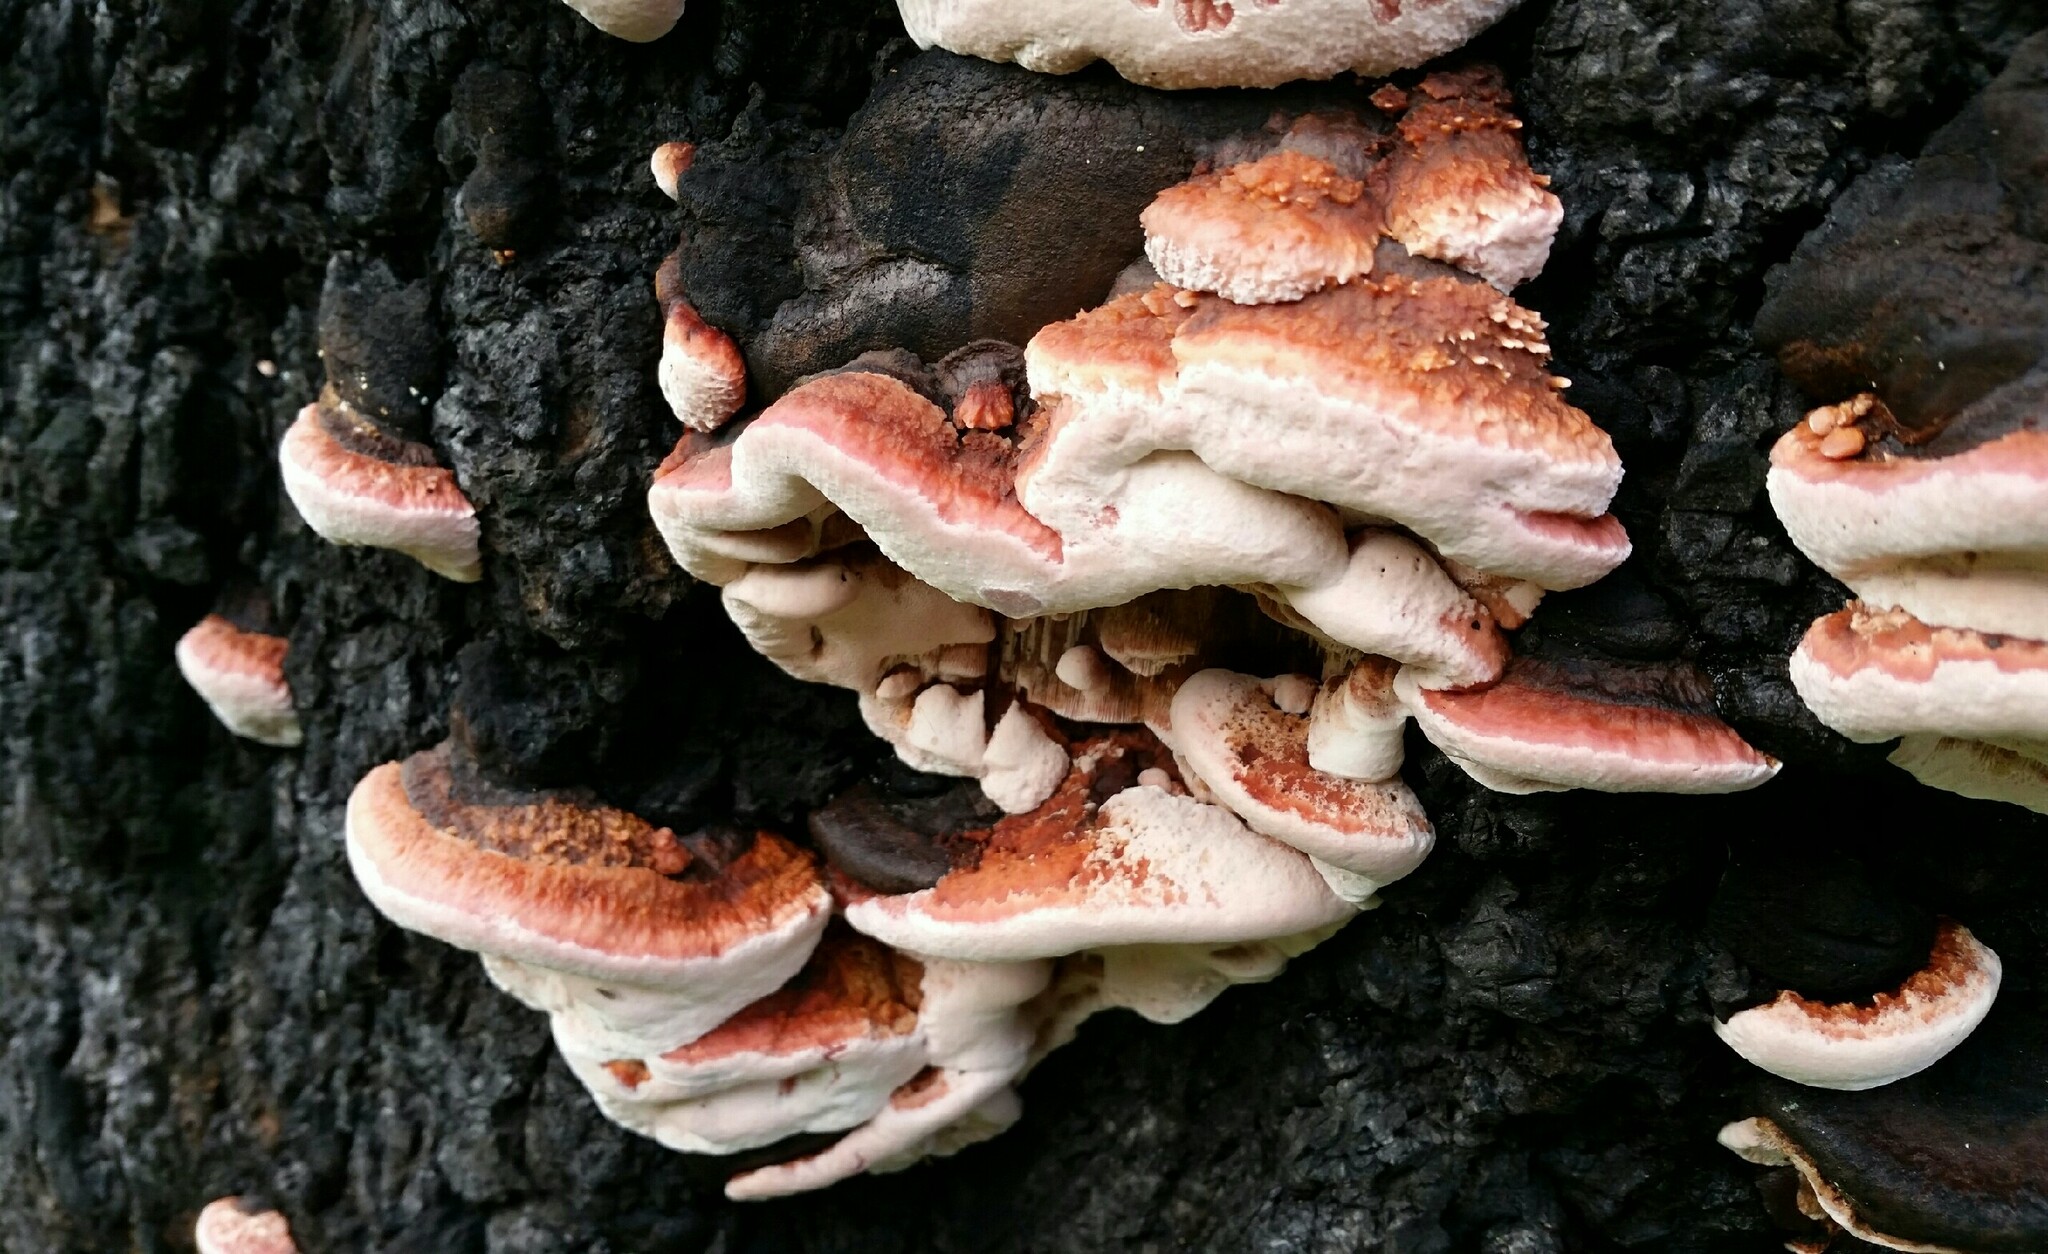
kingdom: Fungi
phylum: Basidiomycota
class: Agaricomycetes
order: Polyporales
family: Fomitopsidaceae
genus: Rhodofomes
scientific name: Rhodofomes cajanderi
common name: Rosy conk
